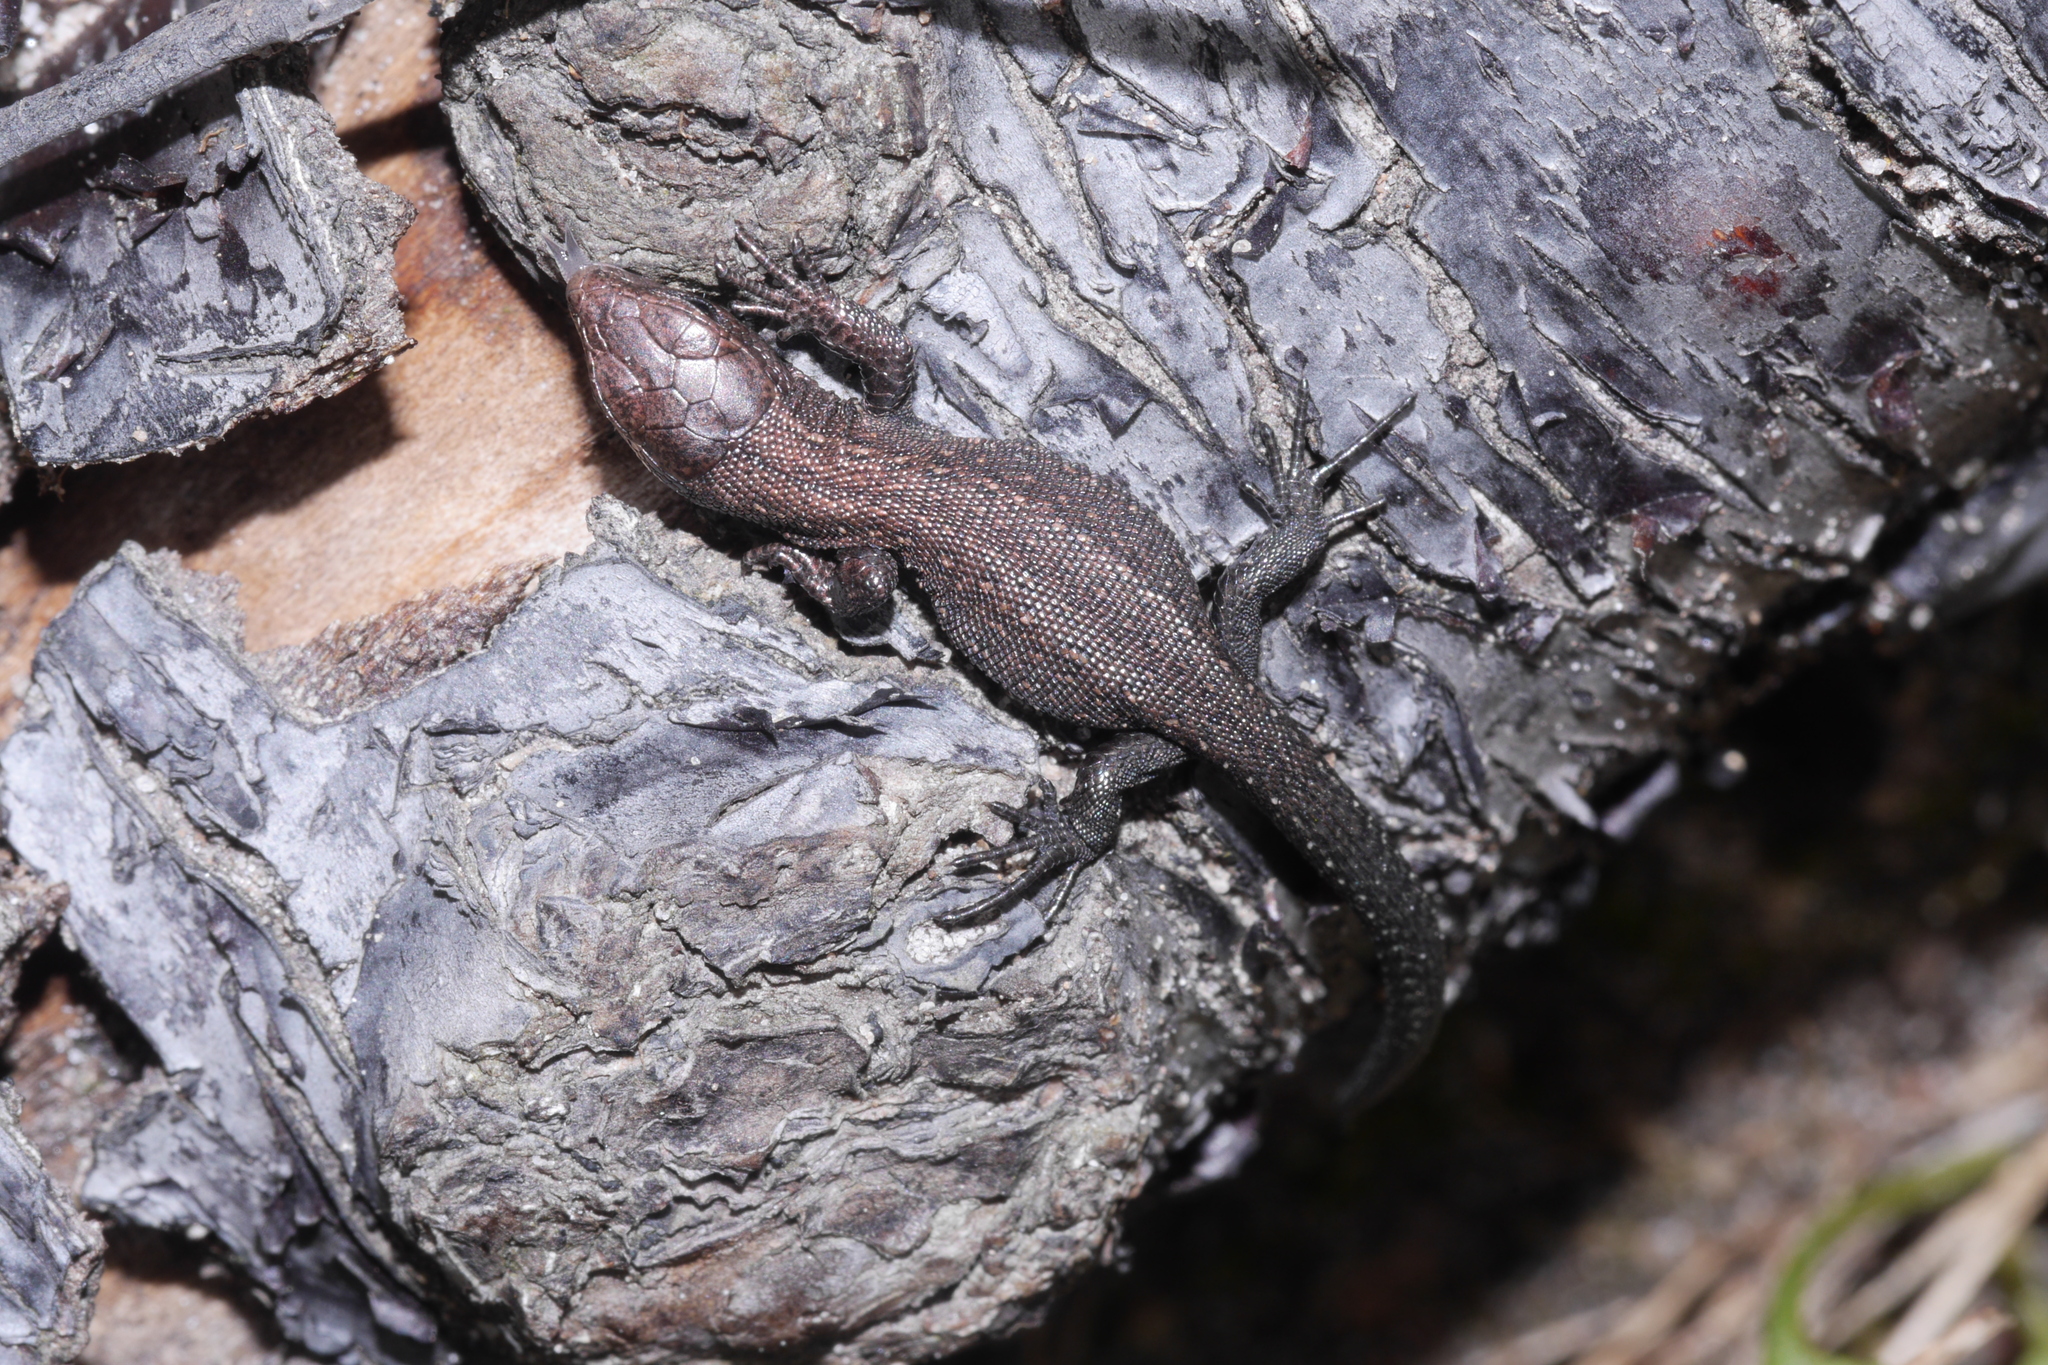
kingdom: Animalia
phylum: Chordata
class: Squamata
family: Lacertidae
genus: Zootoca
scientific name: Zootoca vivipara
